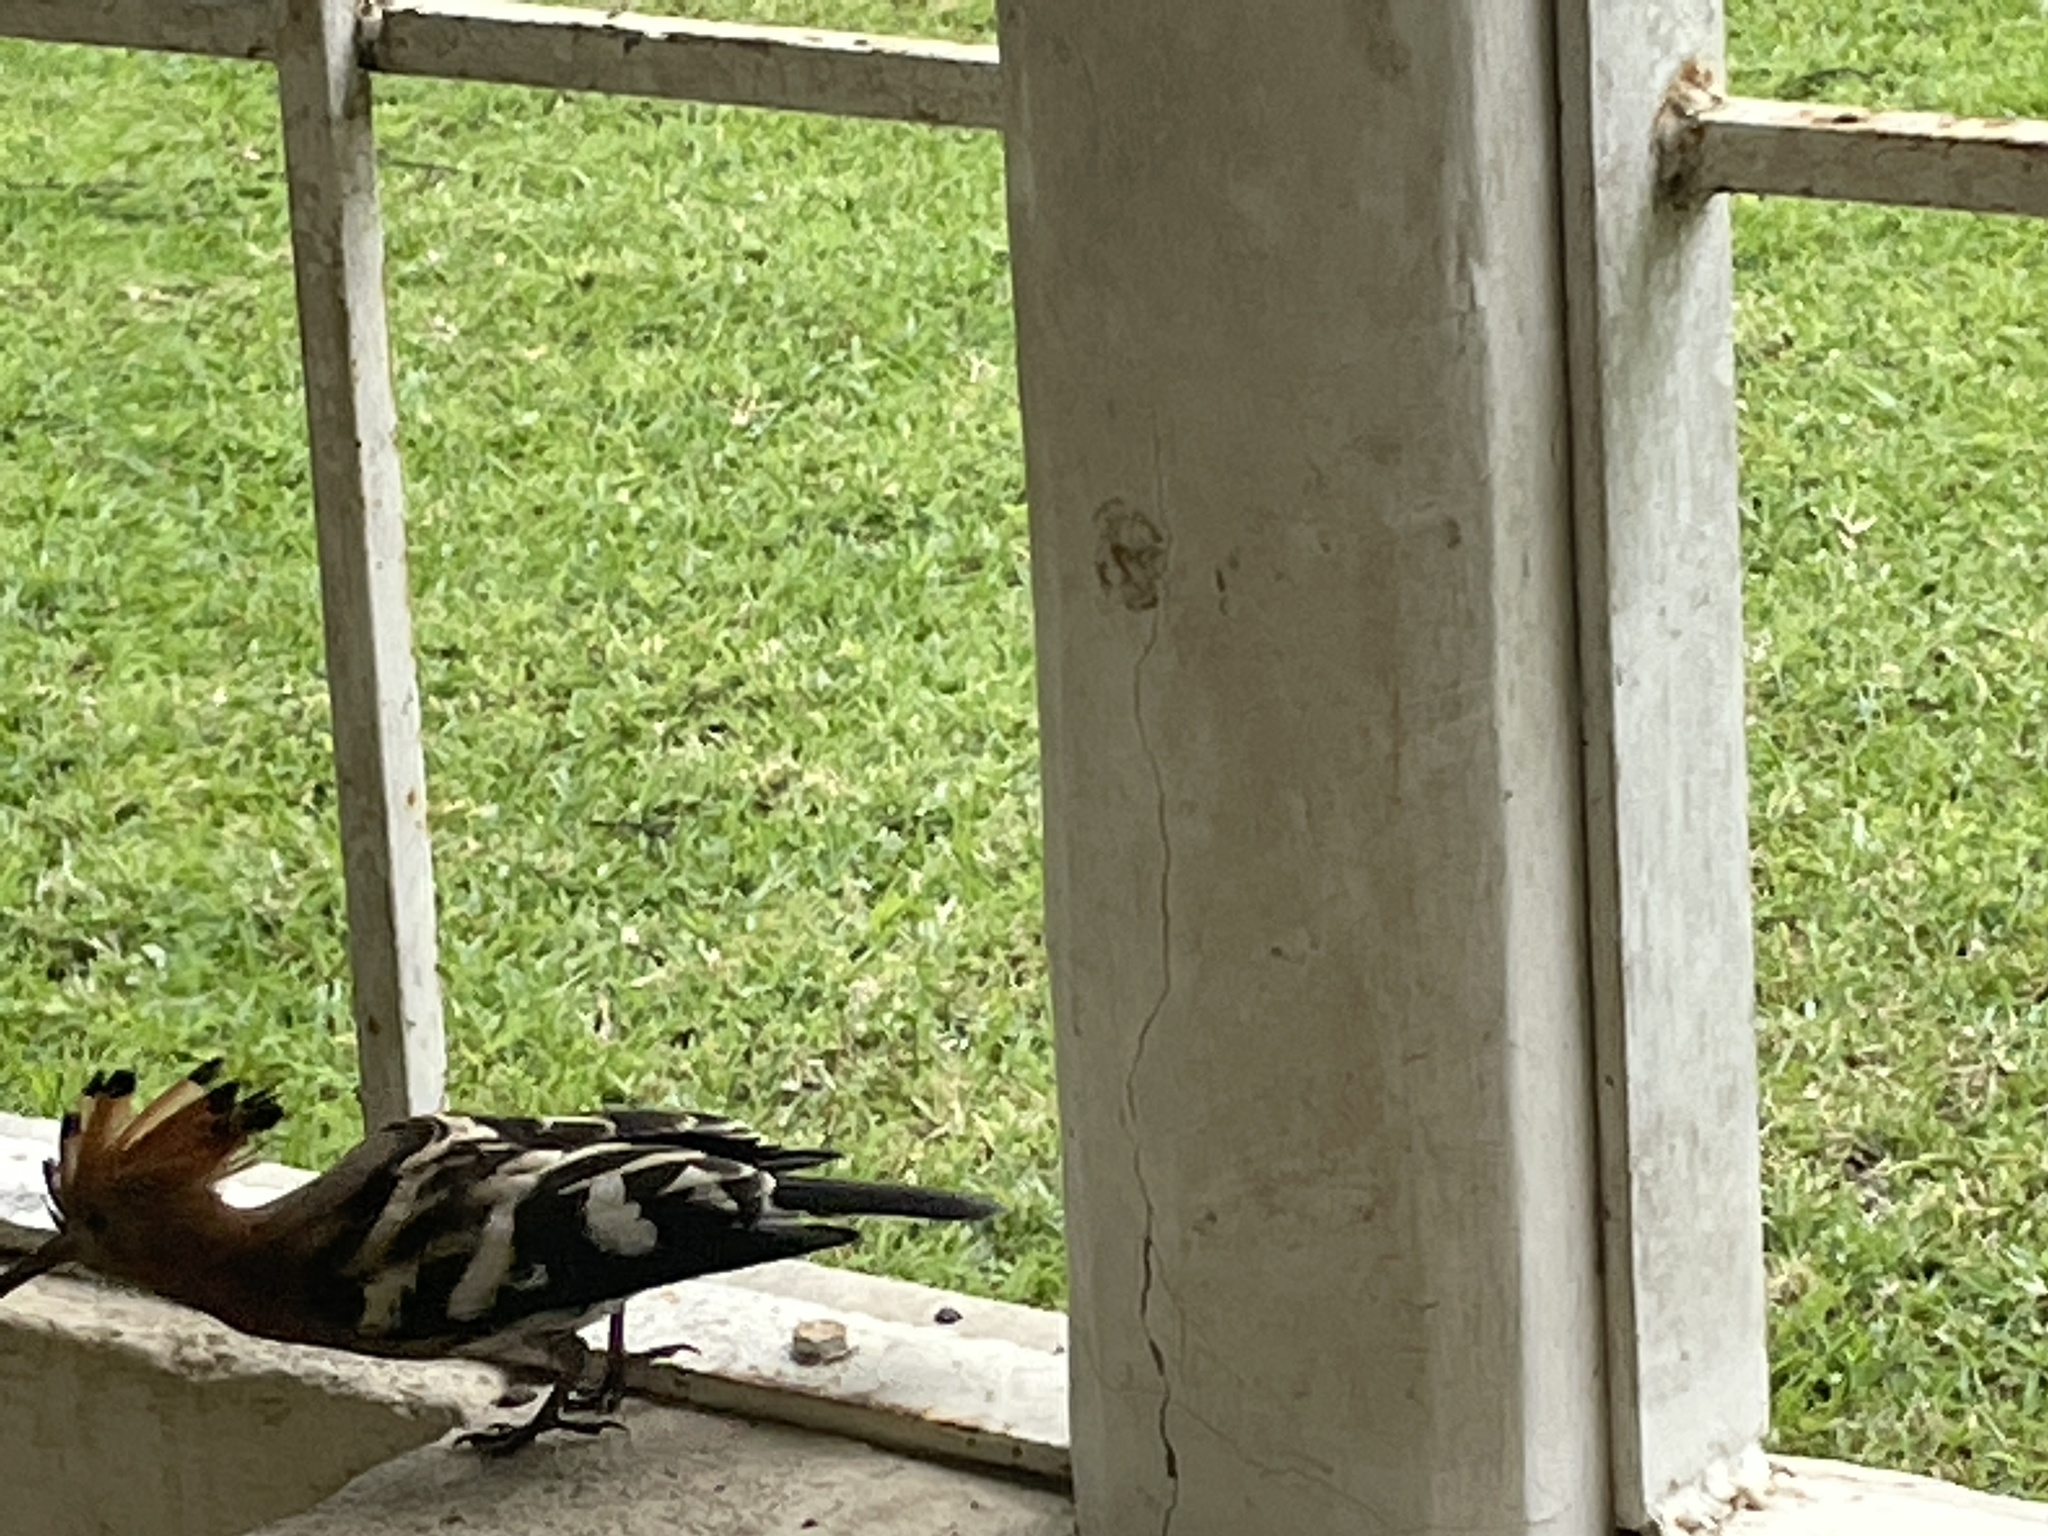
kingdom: Animalia
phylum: Chordata
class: Aves
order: Bucerotiformes
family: Upupidae
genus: Upupa
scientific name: Upupa africana
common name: African hoopoe
